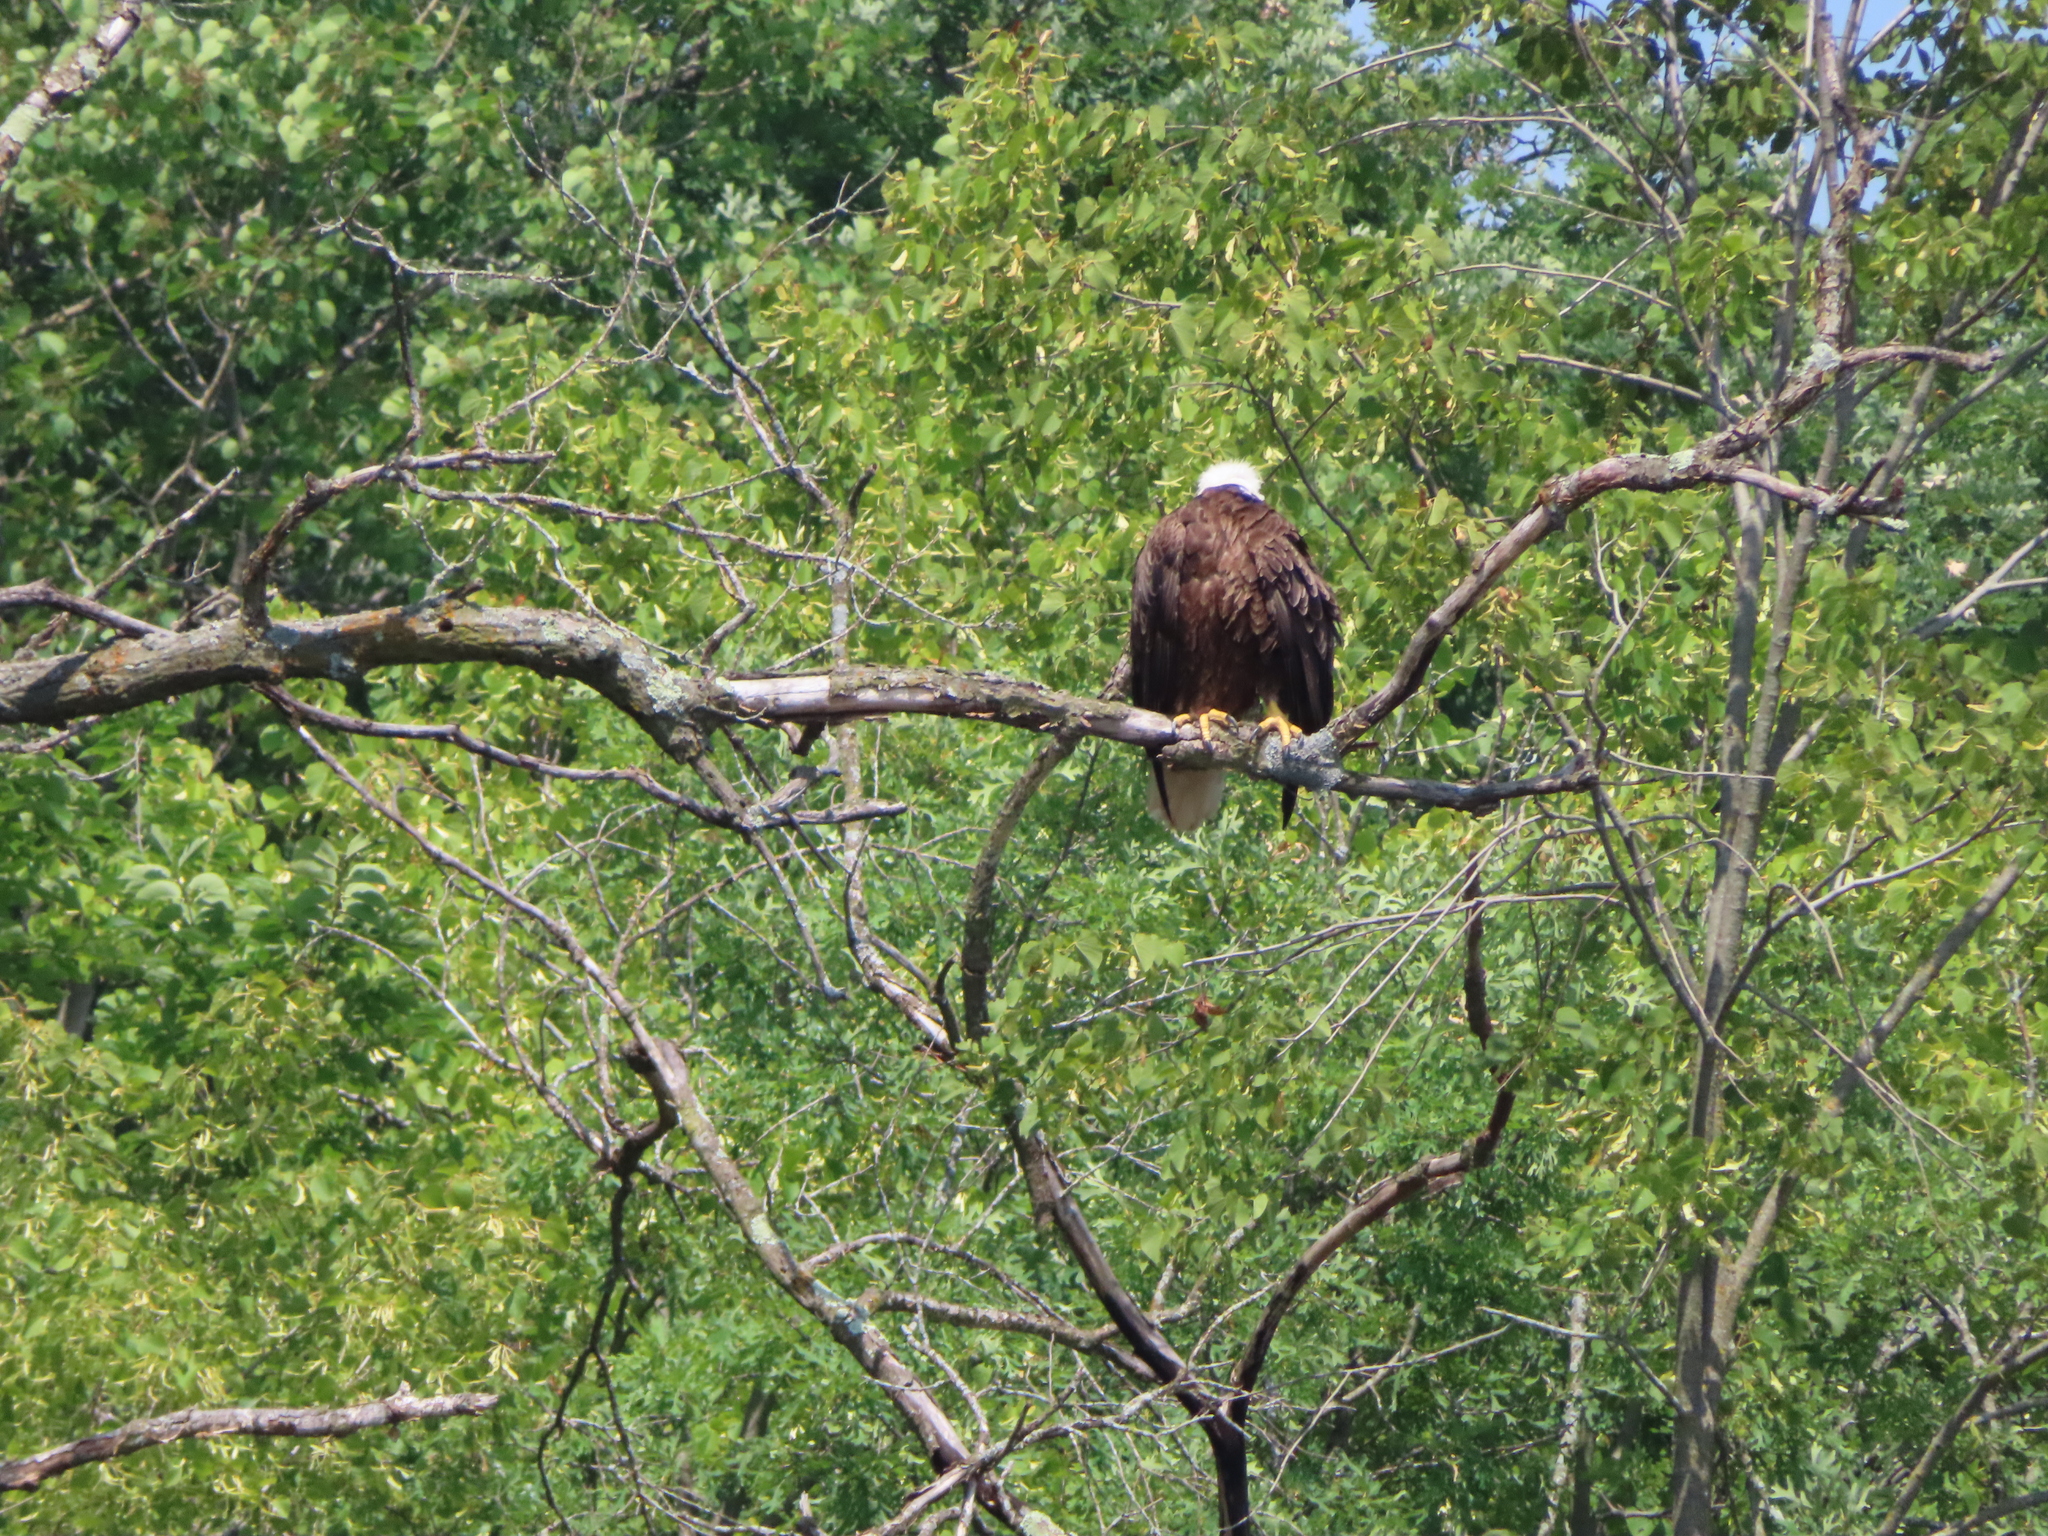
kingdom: Animalia
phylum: Chordata
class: Aves
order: Accipitriformes
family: Accipitridae
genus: Haliaeetus
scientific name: Haliaeetus leucocephalus
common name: Bald eagle
